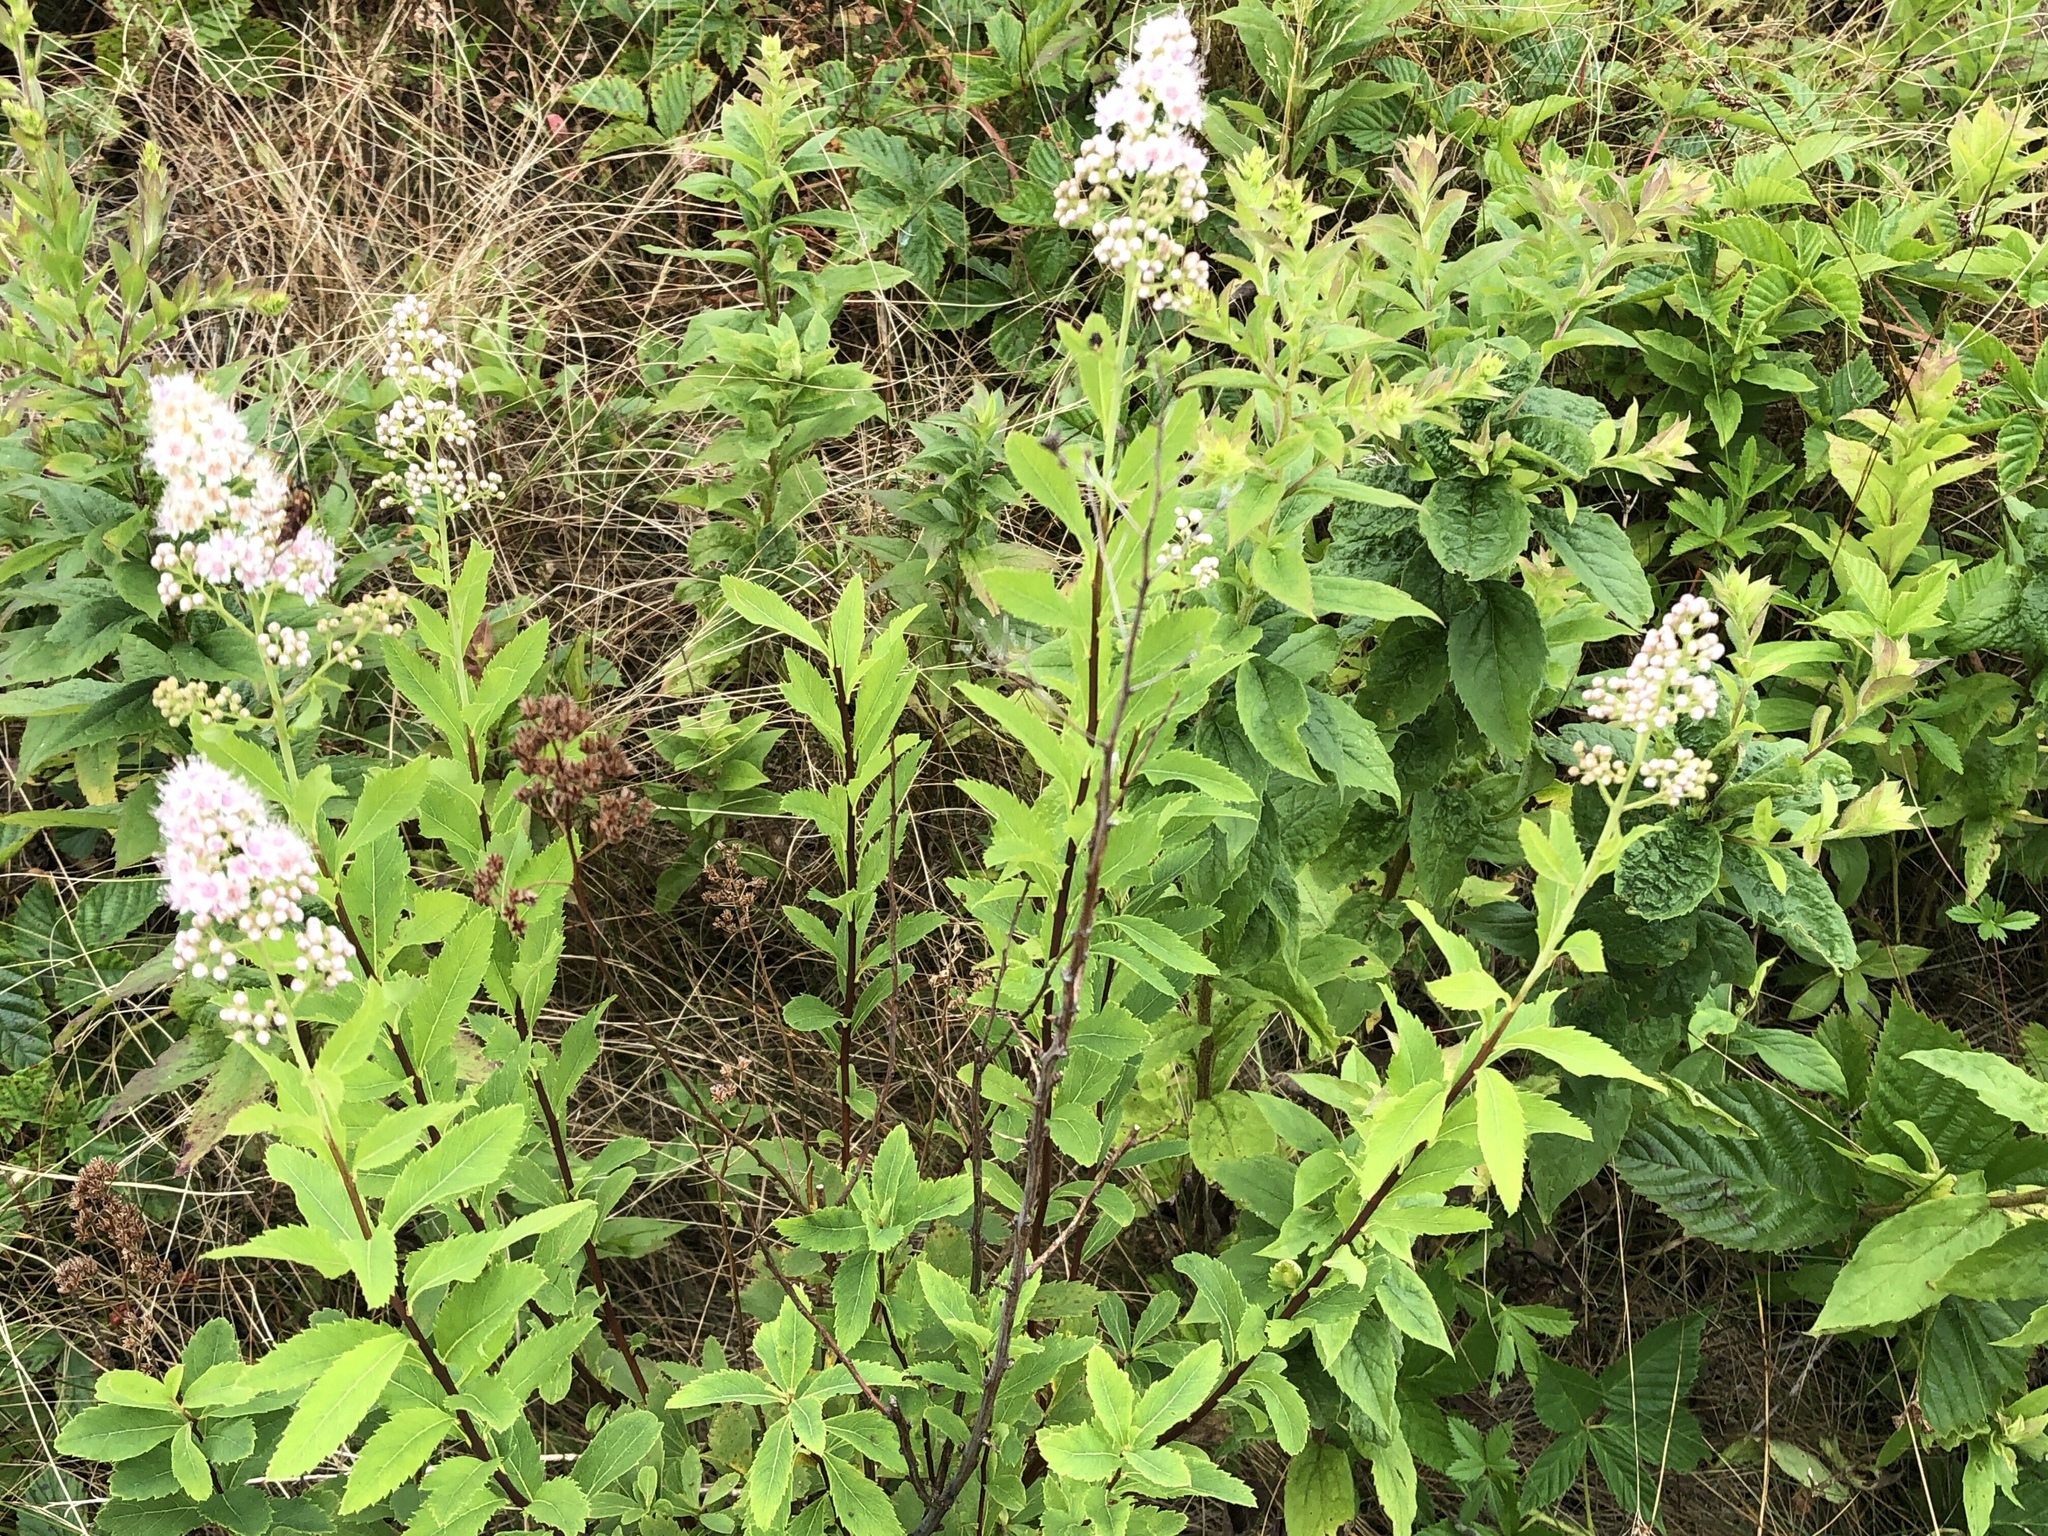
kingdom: Plantae
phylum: Tracheophyta
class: Magnoliopsida
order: Rosales
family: Rosaceae
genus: Spiraea
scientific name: Spiraea alba
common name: Pale bridewort
